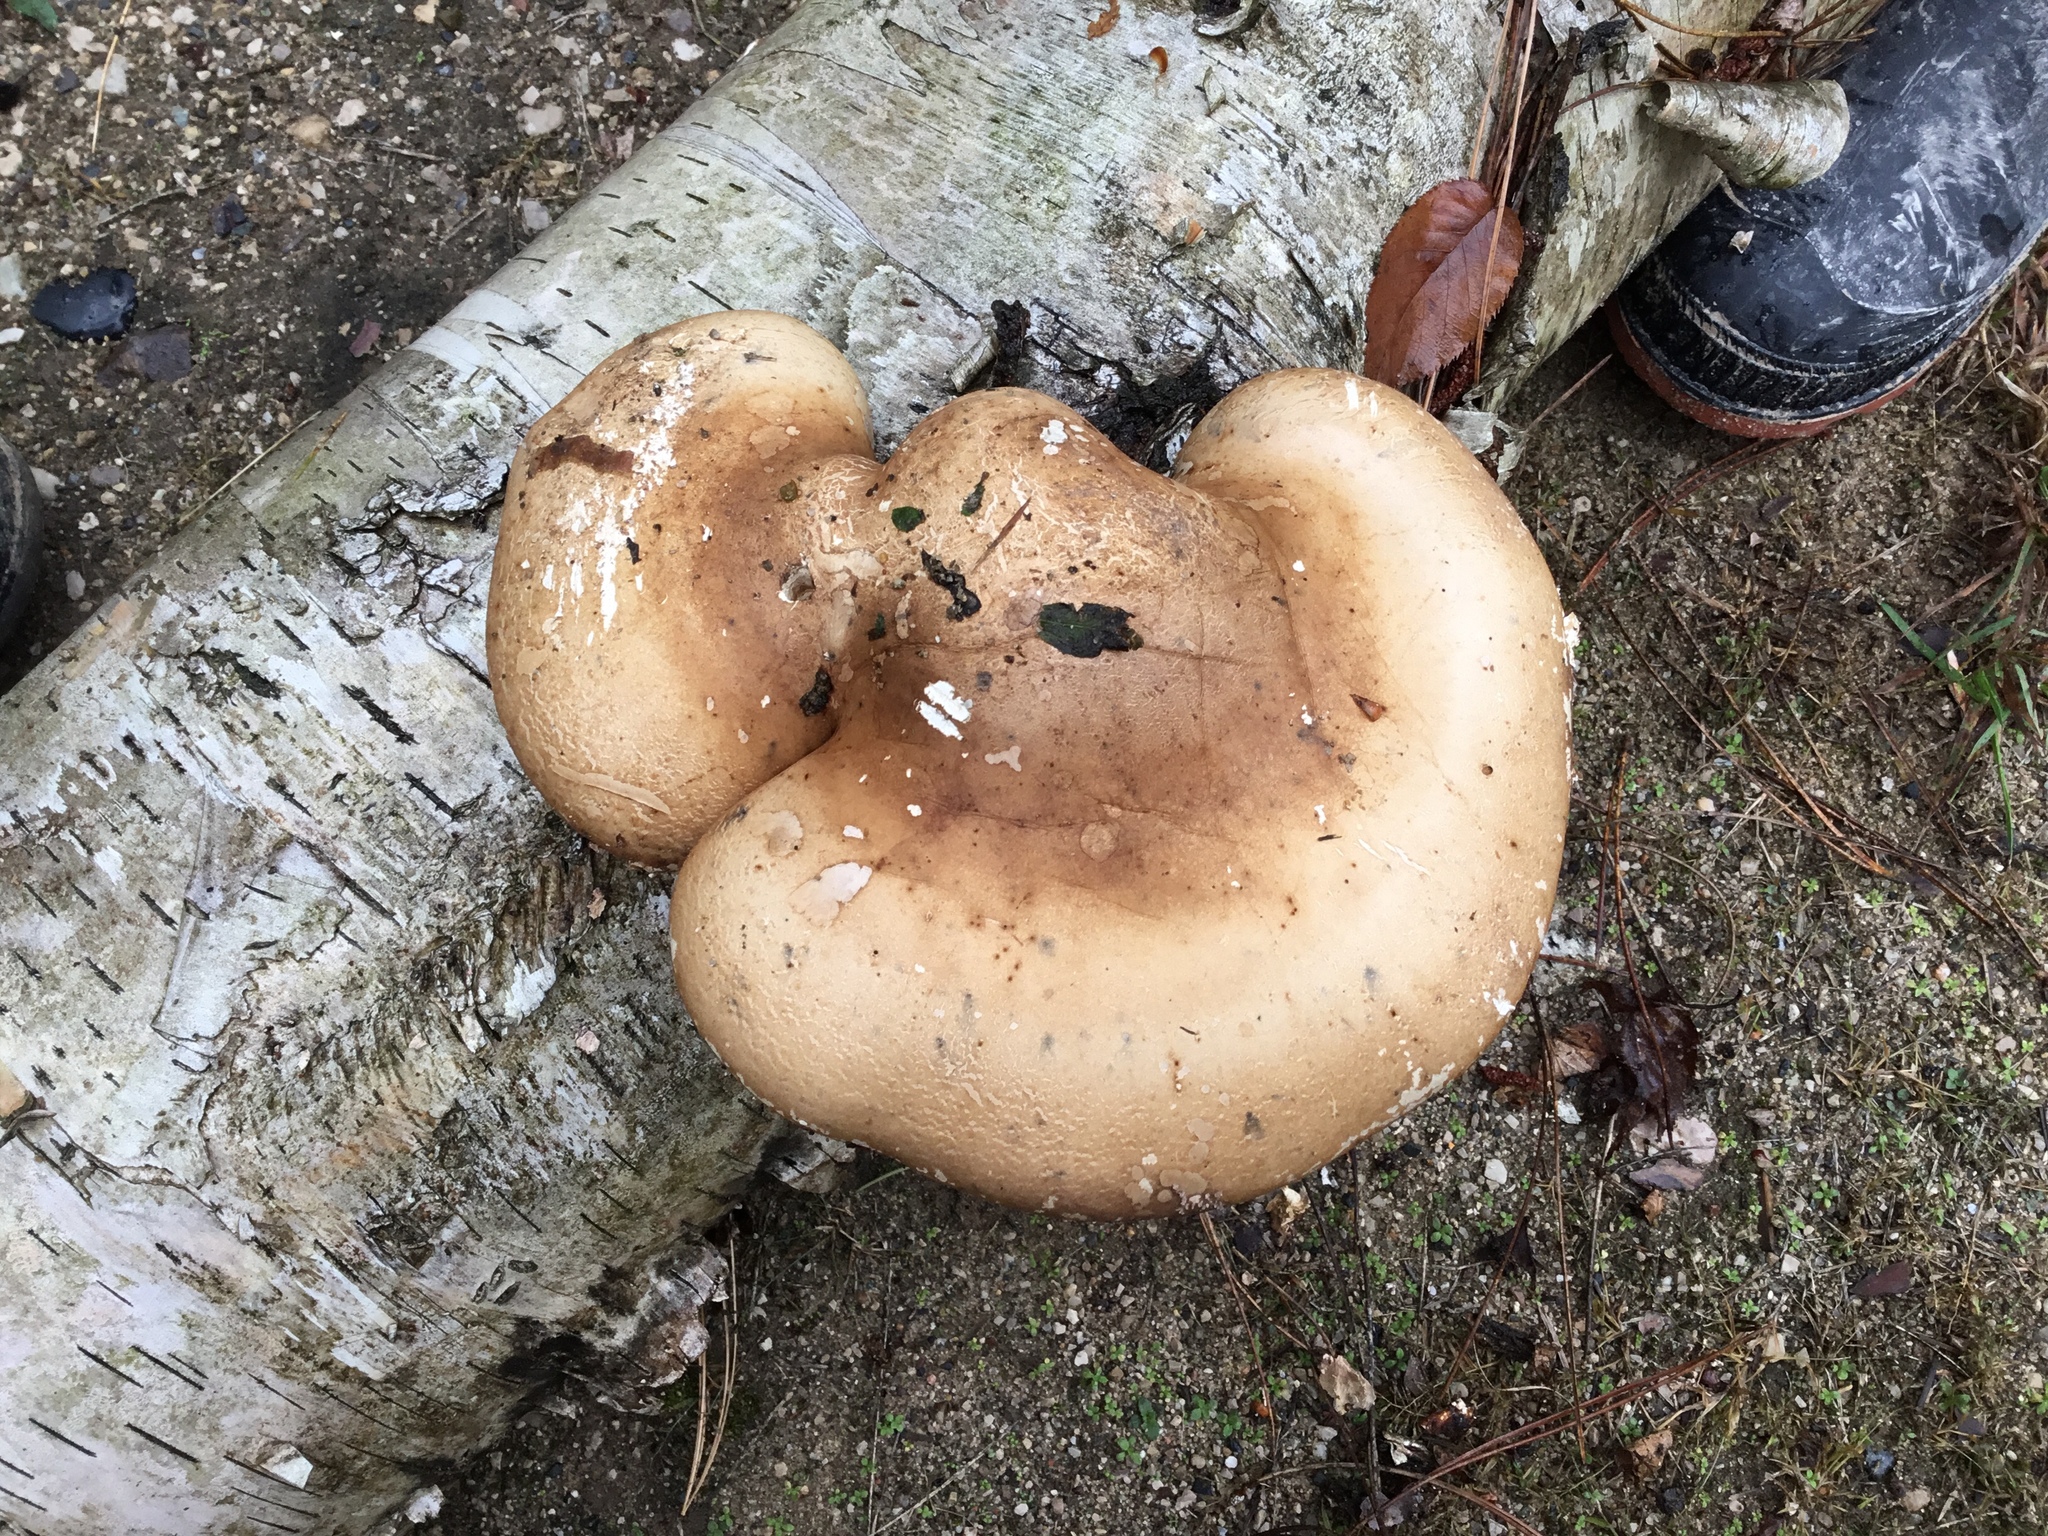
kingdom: Fungi
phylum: Basidiomycota
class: Agaricomycetes
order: Polyporales
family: Fomitopsidaceae
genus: Fomitopsis
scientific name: Fomitopsis betulina
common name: Birch polypore
